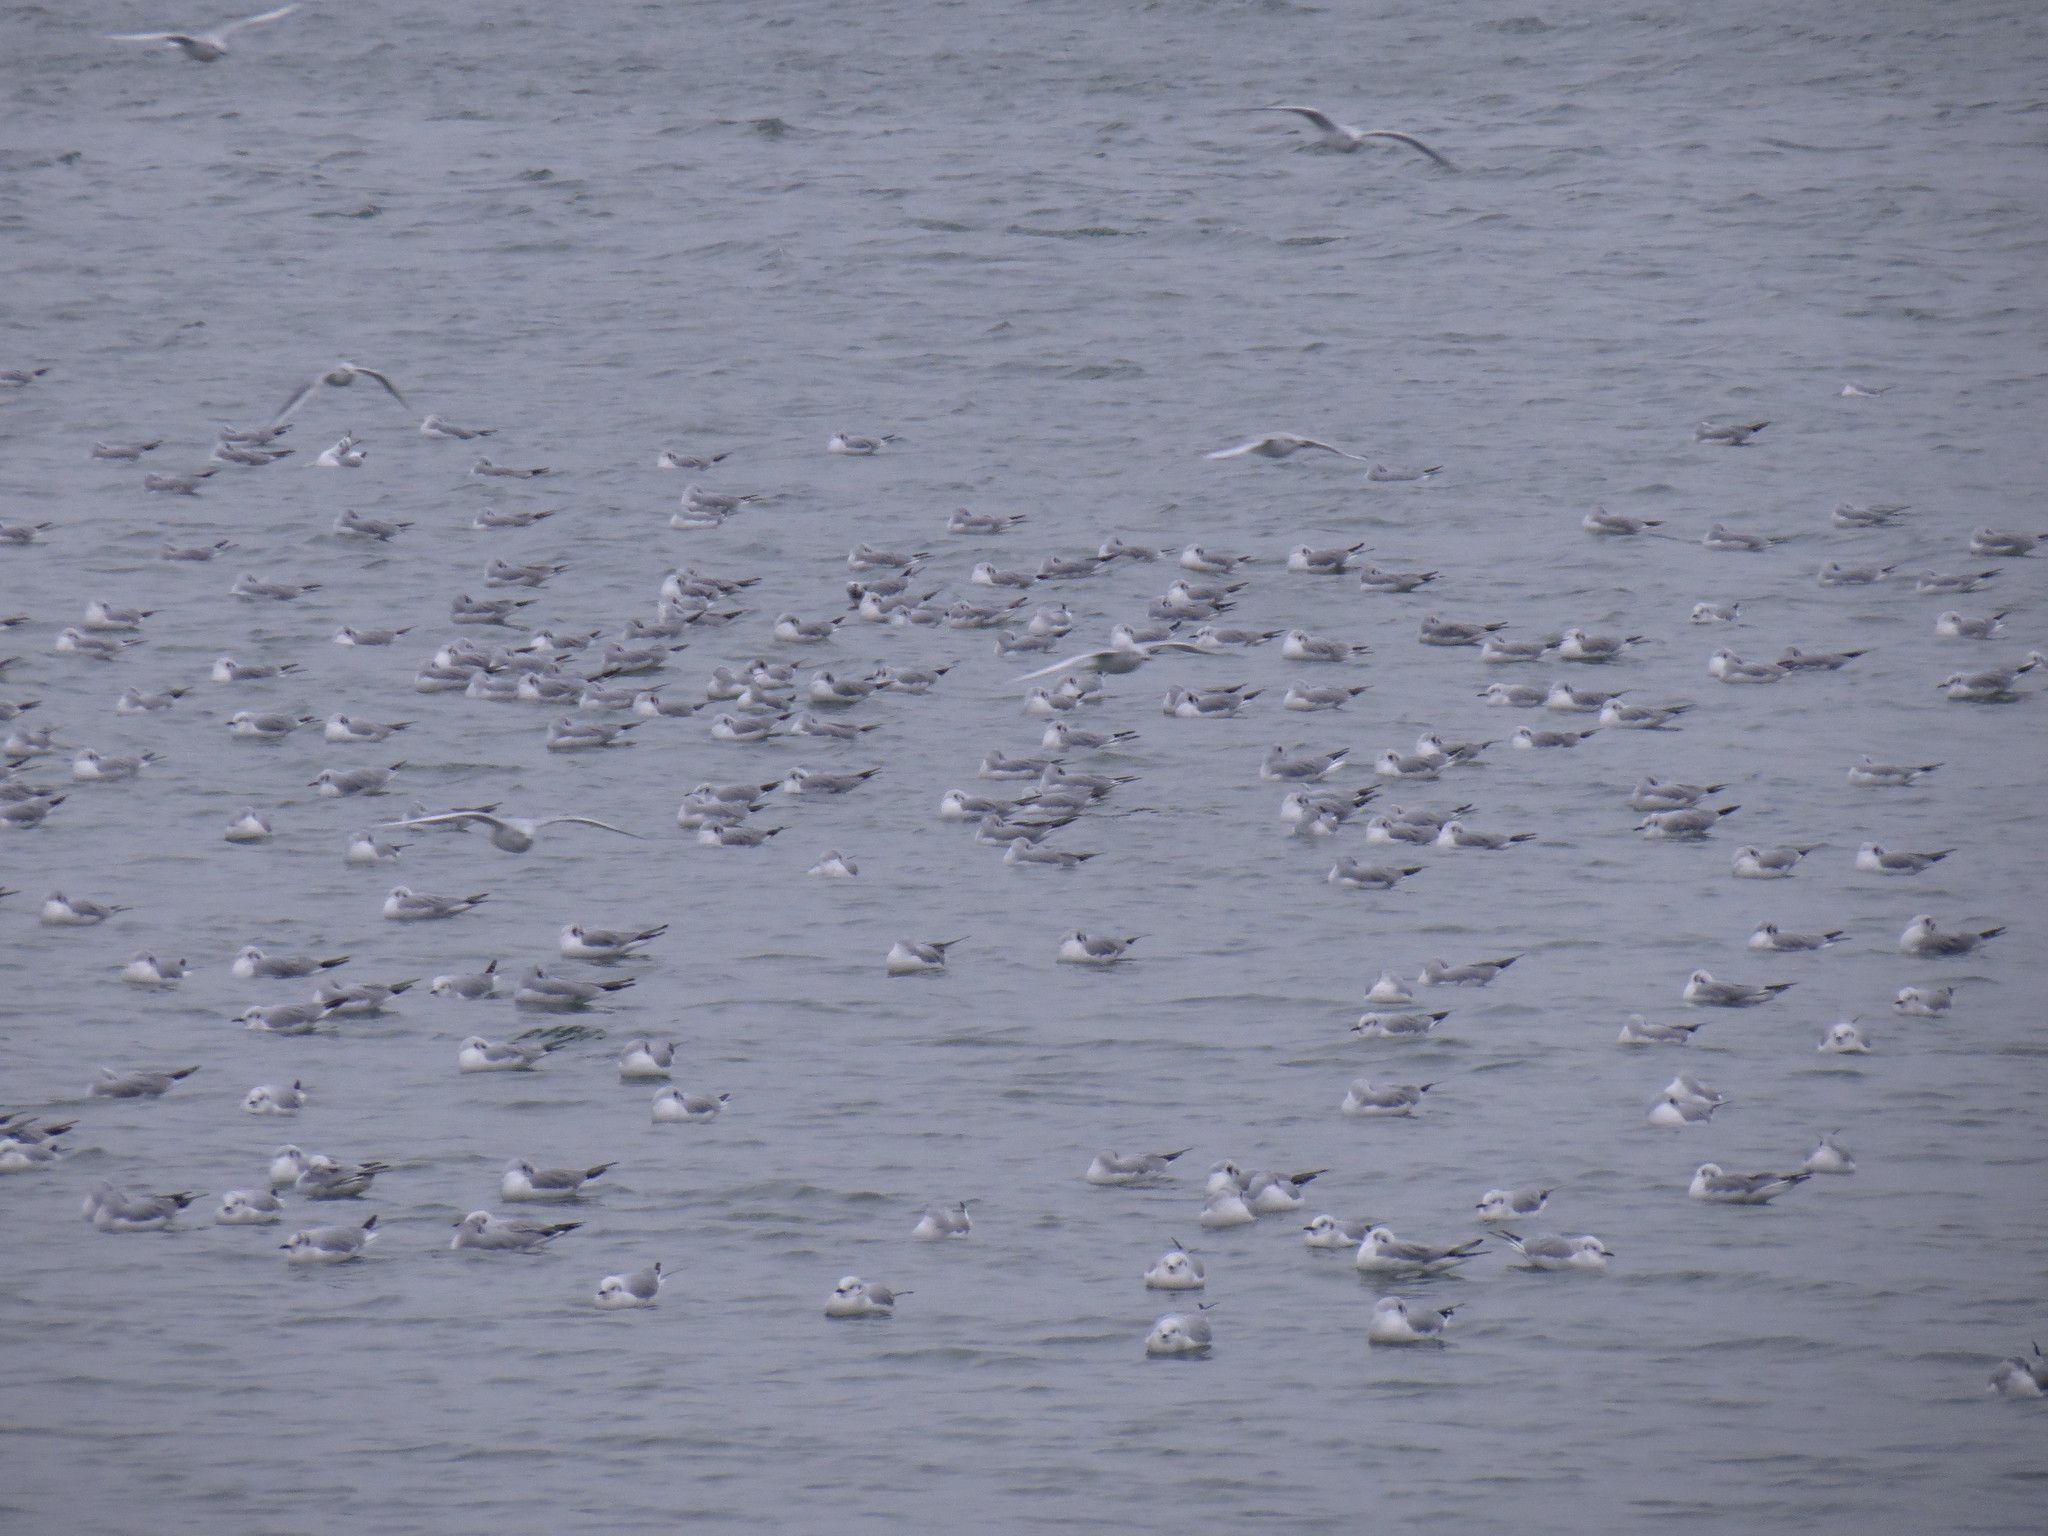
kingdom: Animalia
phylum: Chordata
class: Aves
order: Charadriiformes
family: Laridae
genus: Chroicocephalus
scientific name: Chroicocephalus philadelphia
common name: Bonaparte's gull
